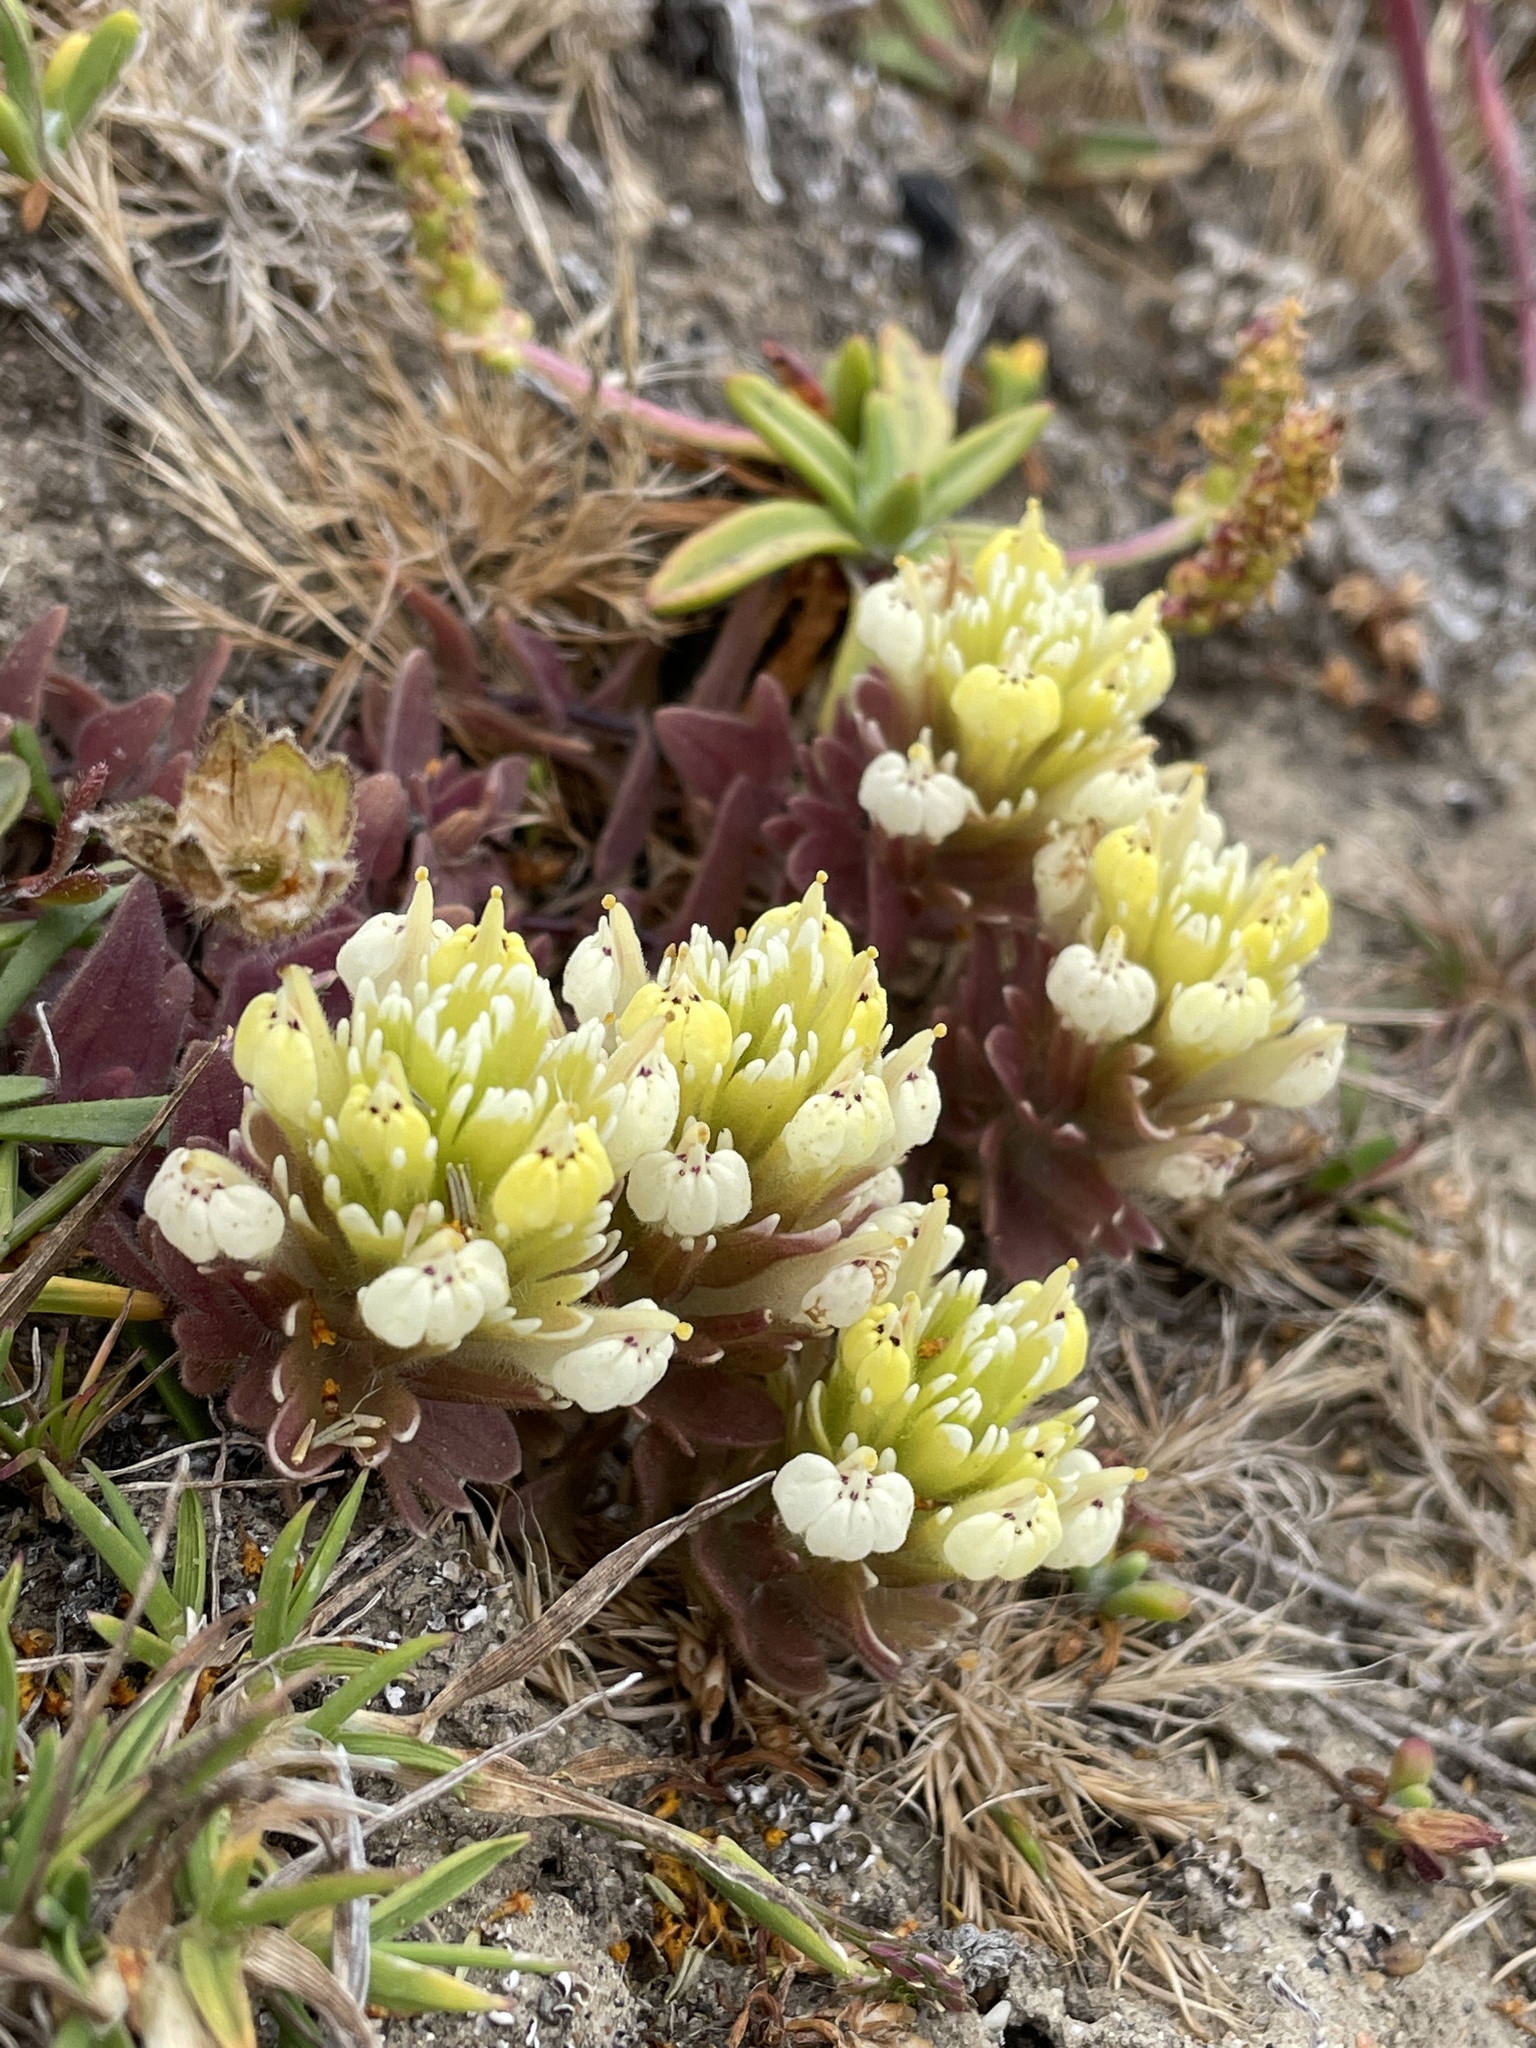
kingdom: Plantae
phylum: Tracheophyta
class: Magnoliopsida
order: Lamiales
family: Orobanchaceae
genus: Castilleja
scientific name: Castilleja ambigua
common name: Johnny-nip
